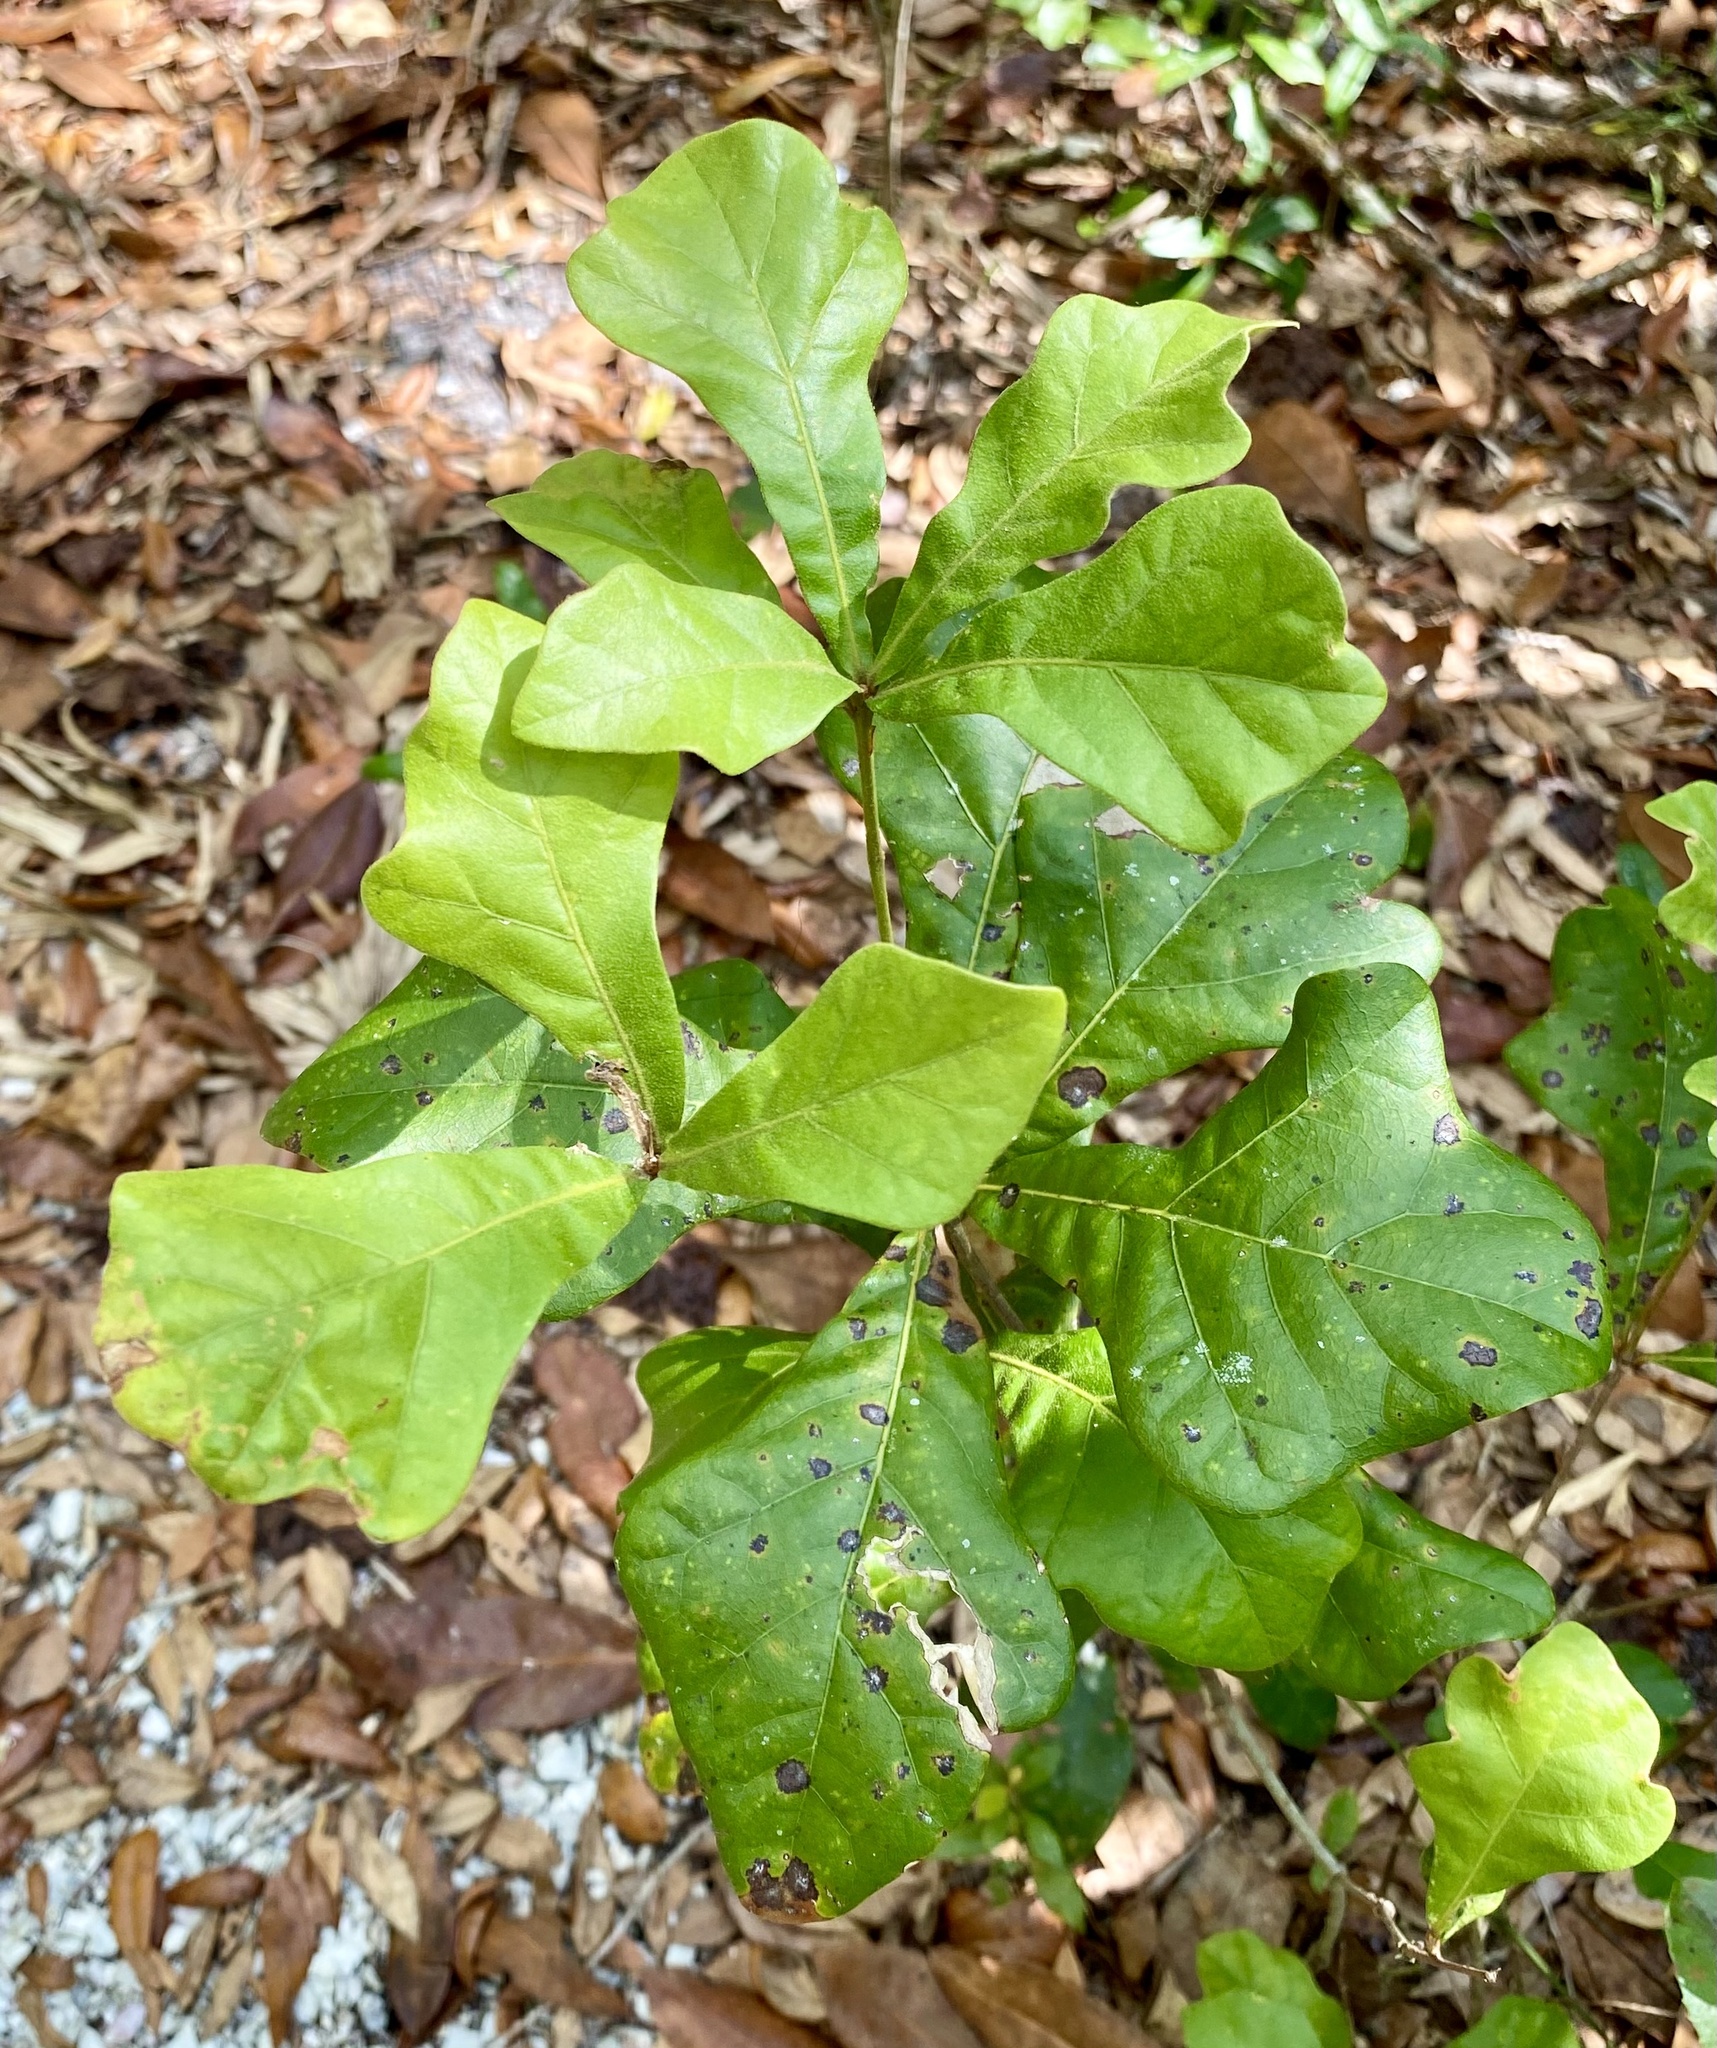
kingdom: Plantae
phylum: Tracheophyta
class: Magnoliopsida
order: Fagales
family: Fagaceae
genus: Quercus
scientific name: Quercus nigra
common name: Water oak
